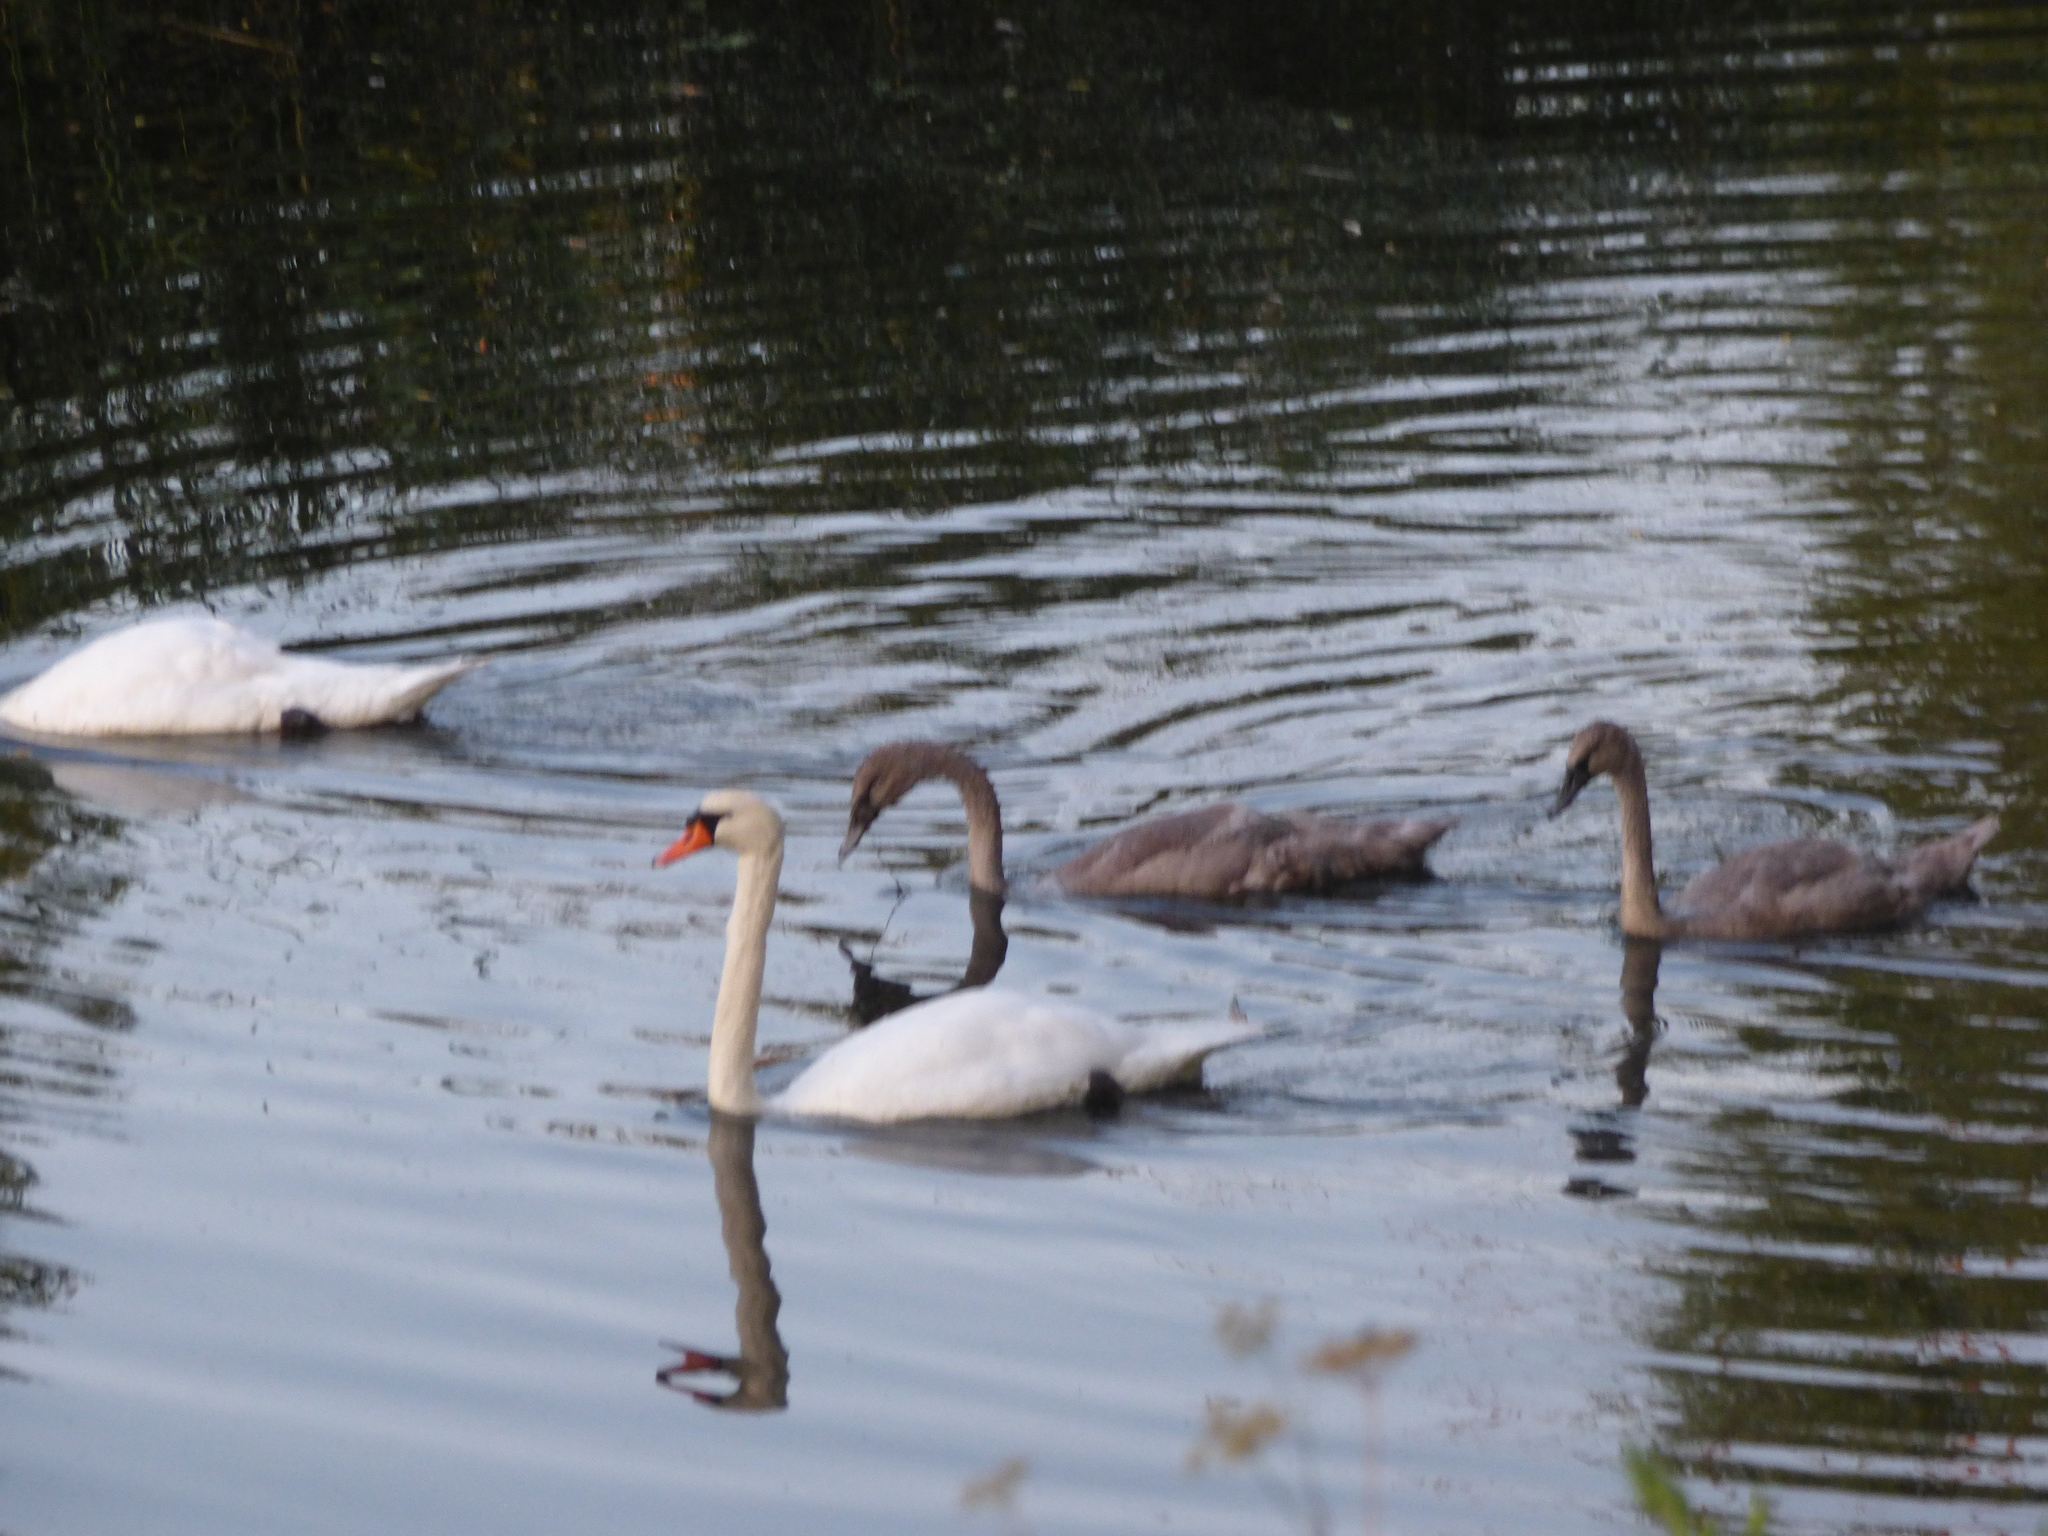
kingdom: Animalia
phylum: Chordata
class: Aves
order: Anseriformes
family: Anatidae
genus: Cygnus
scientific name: Cygnus olor
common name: Mute swan
